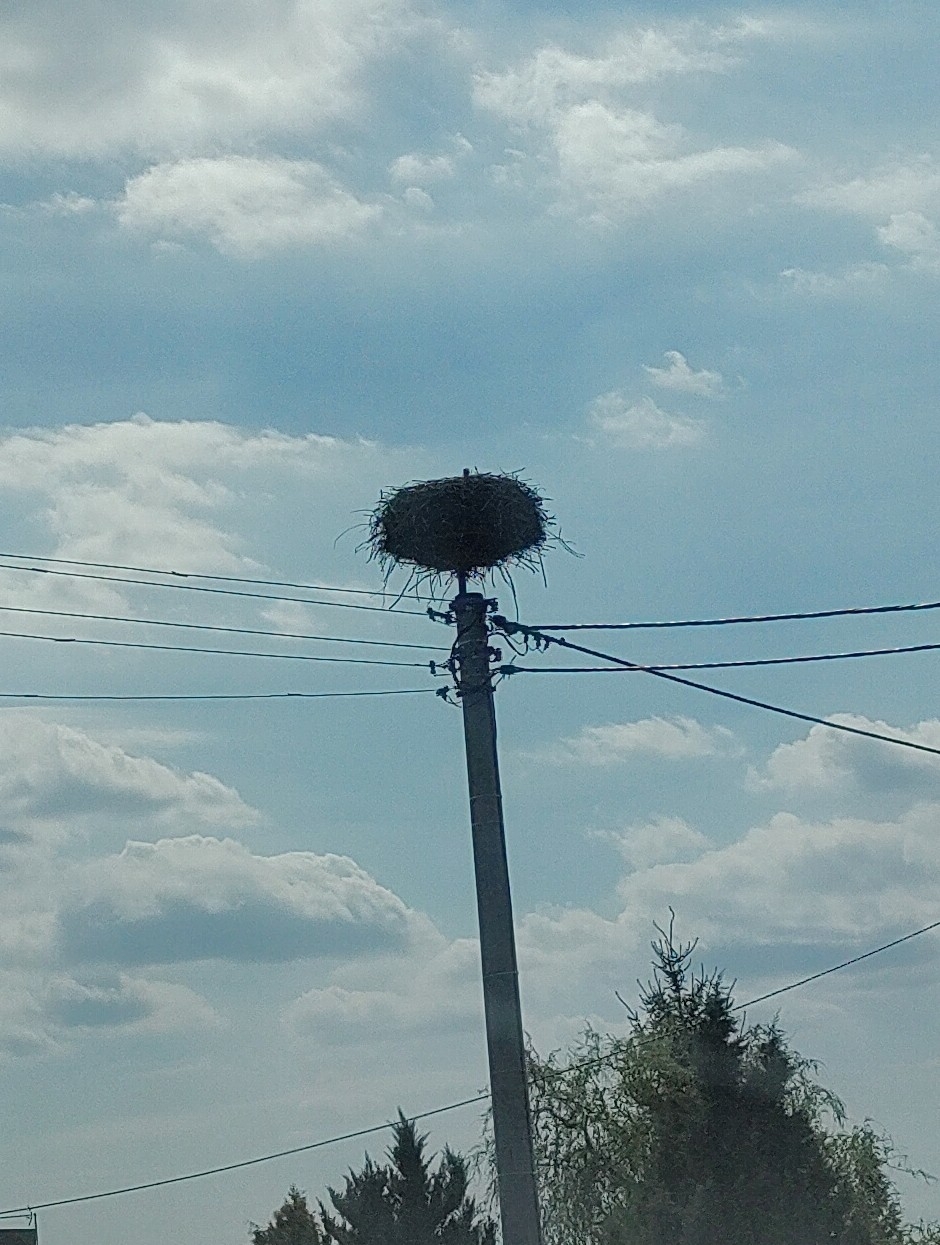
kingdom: Animalia
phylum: Chordata
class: Aves
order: Ciconiiformes
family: Ciconiidae
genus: Ciconia
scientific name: Ciconia ciconia
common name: White stork
